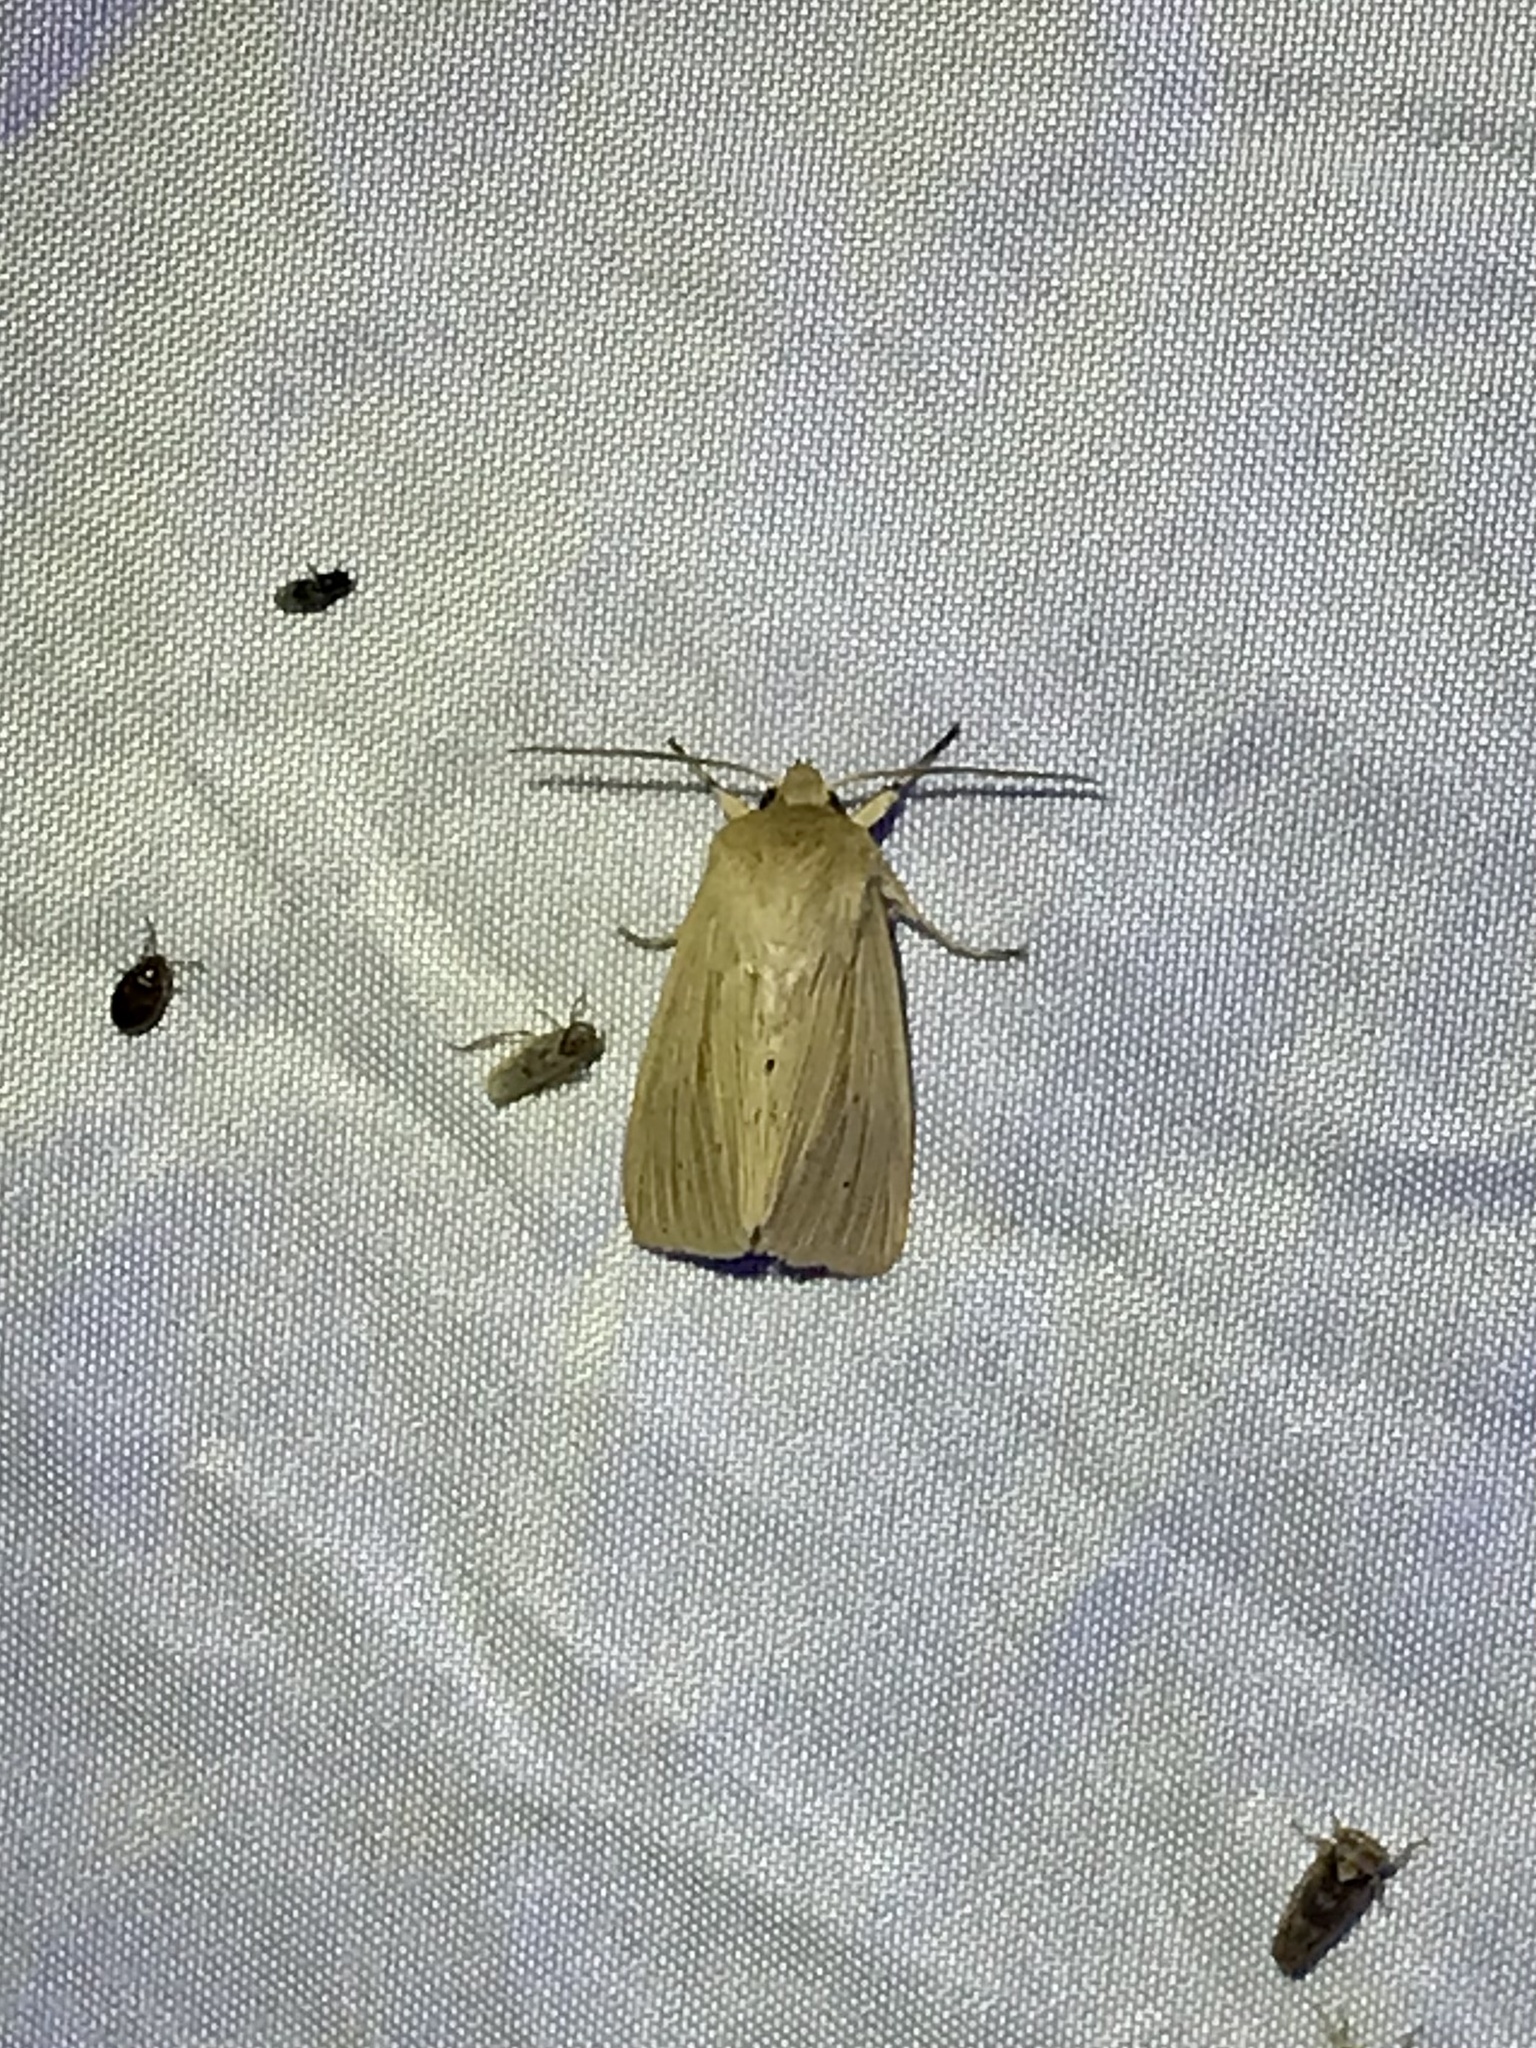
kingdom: Animalia
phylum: Arthropoda
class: Insecta
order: Lepidoptera
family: Noctuidae
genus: Mythimna
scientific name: Mythimna oxygala
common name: Lesser wainscot
